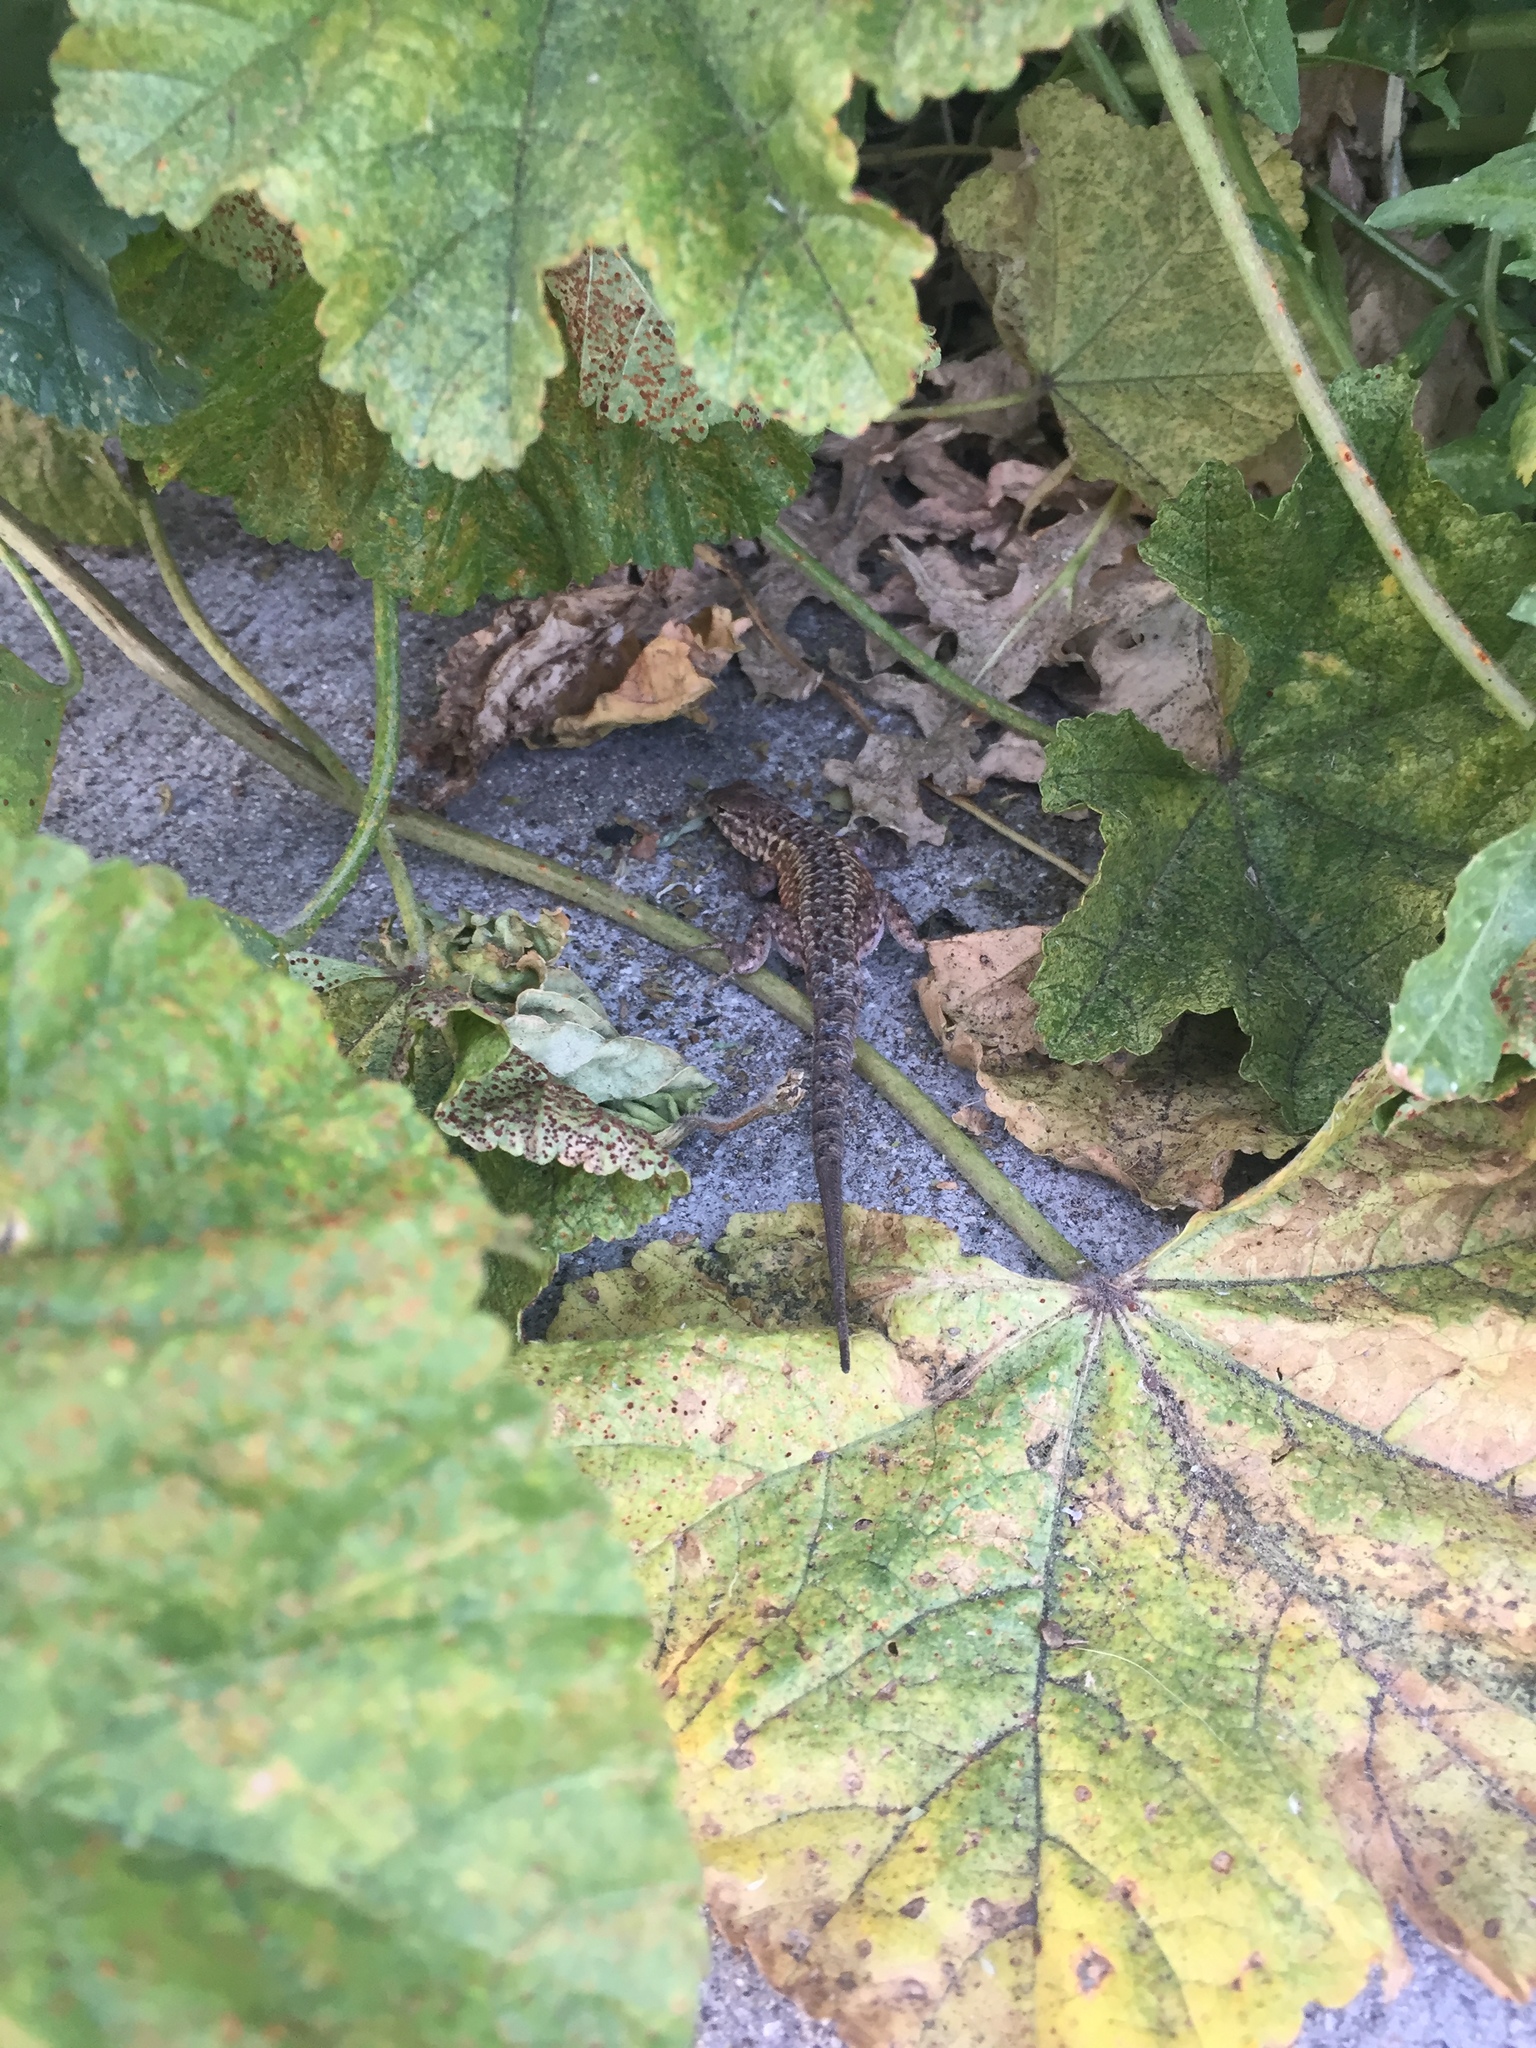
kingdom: Animalia
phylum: Chordata
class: Squamata
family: Phrynosomatidae
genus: Uta
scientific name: Uta stansburiana
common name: Side-blotched lizard
